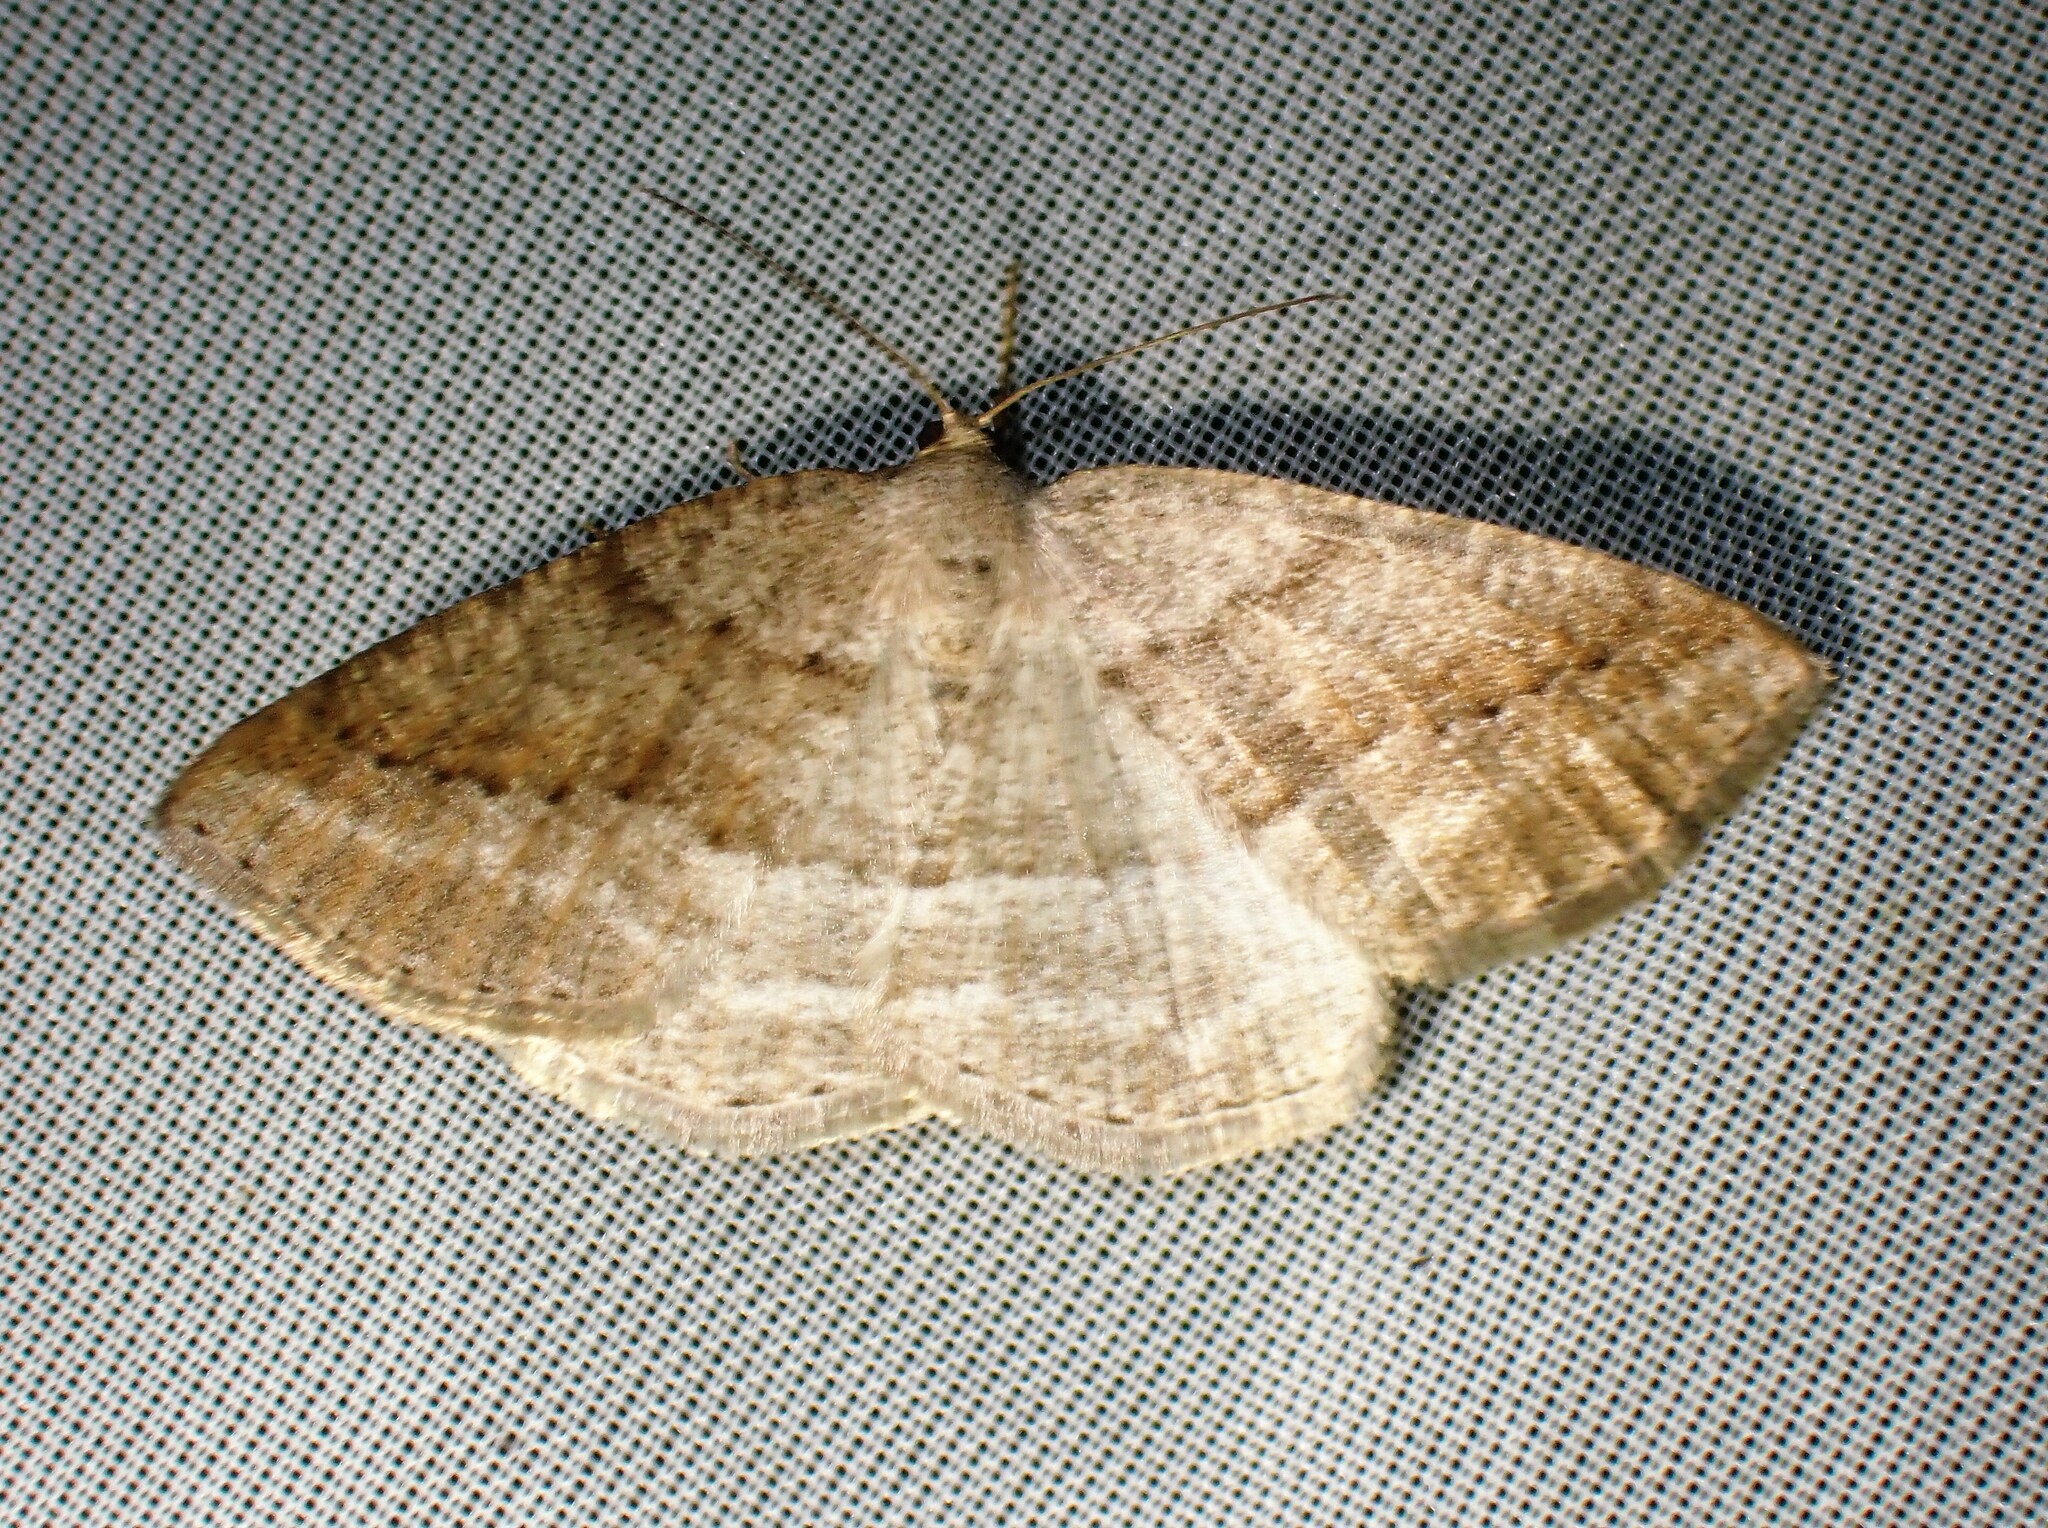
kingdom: Animalia
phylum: Arthropoda
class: Insecta
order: Lepidoptera
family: Geometridae
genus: Tacparia
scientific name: Tacparia detersata
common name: Pale alder moth
